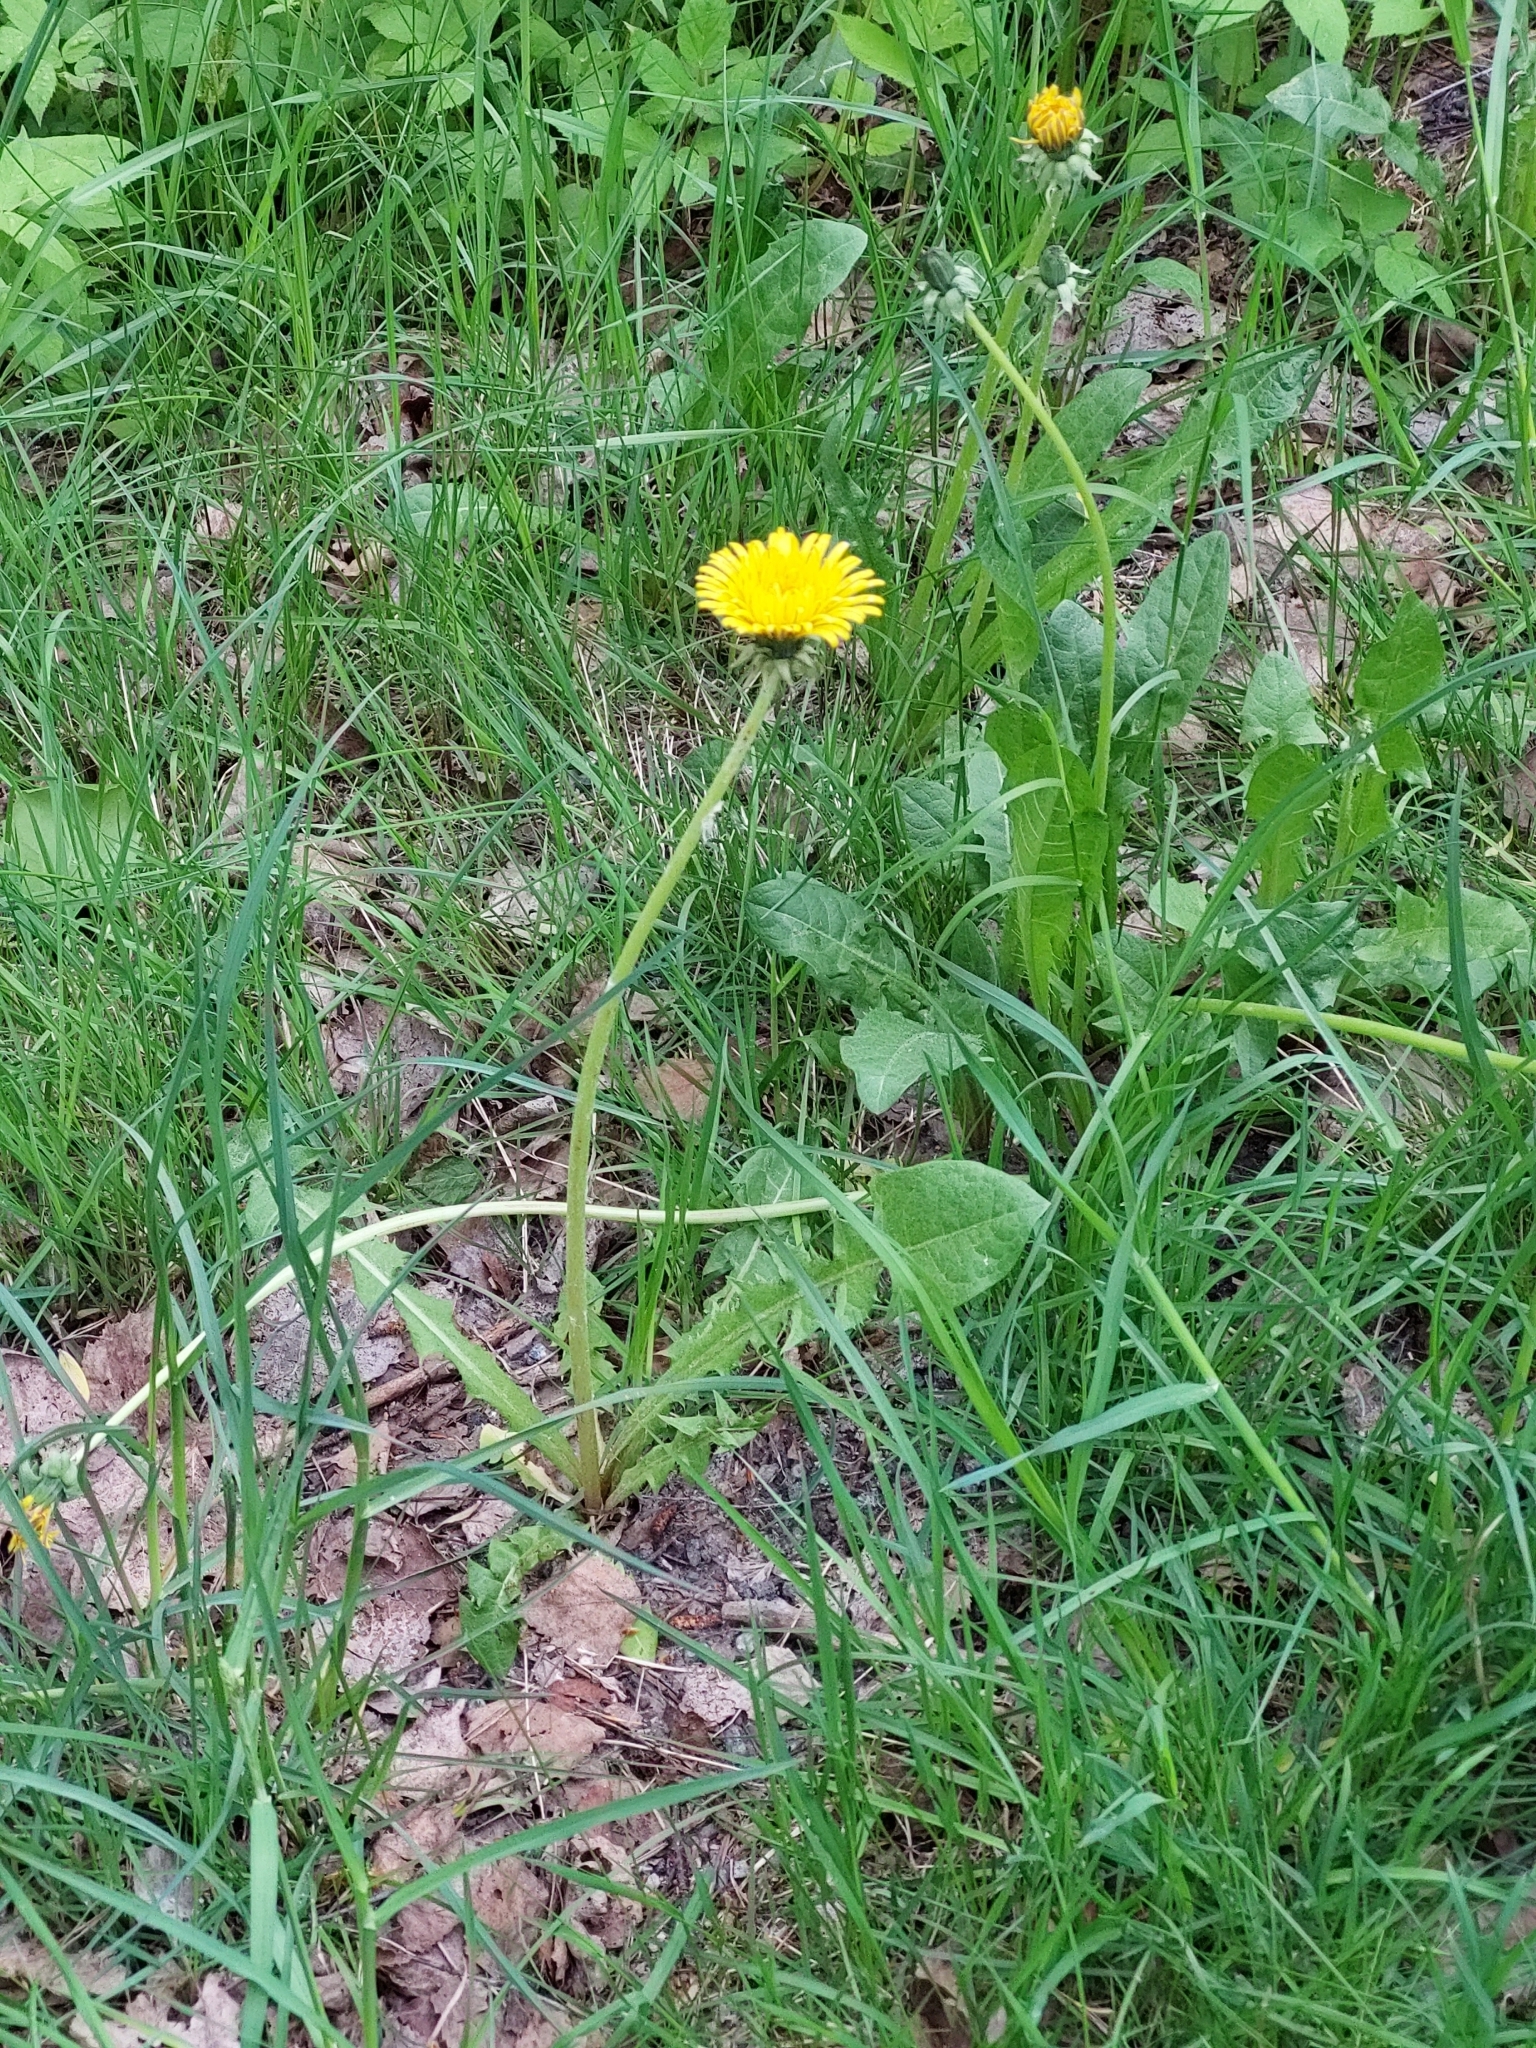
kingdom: Plantae
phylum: Tracheophyta
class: Magnoliopsida
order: Asterales
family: Asteraceae
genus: Taraxacum
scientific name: Taraxacum officinale
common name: Common dandelion
